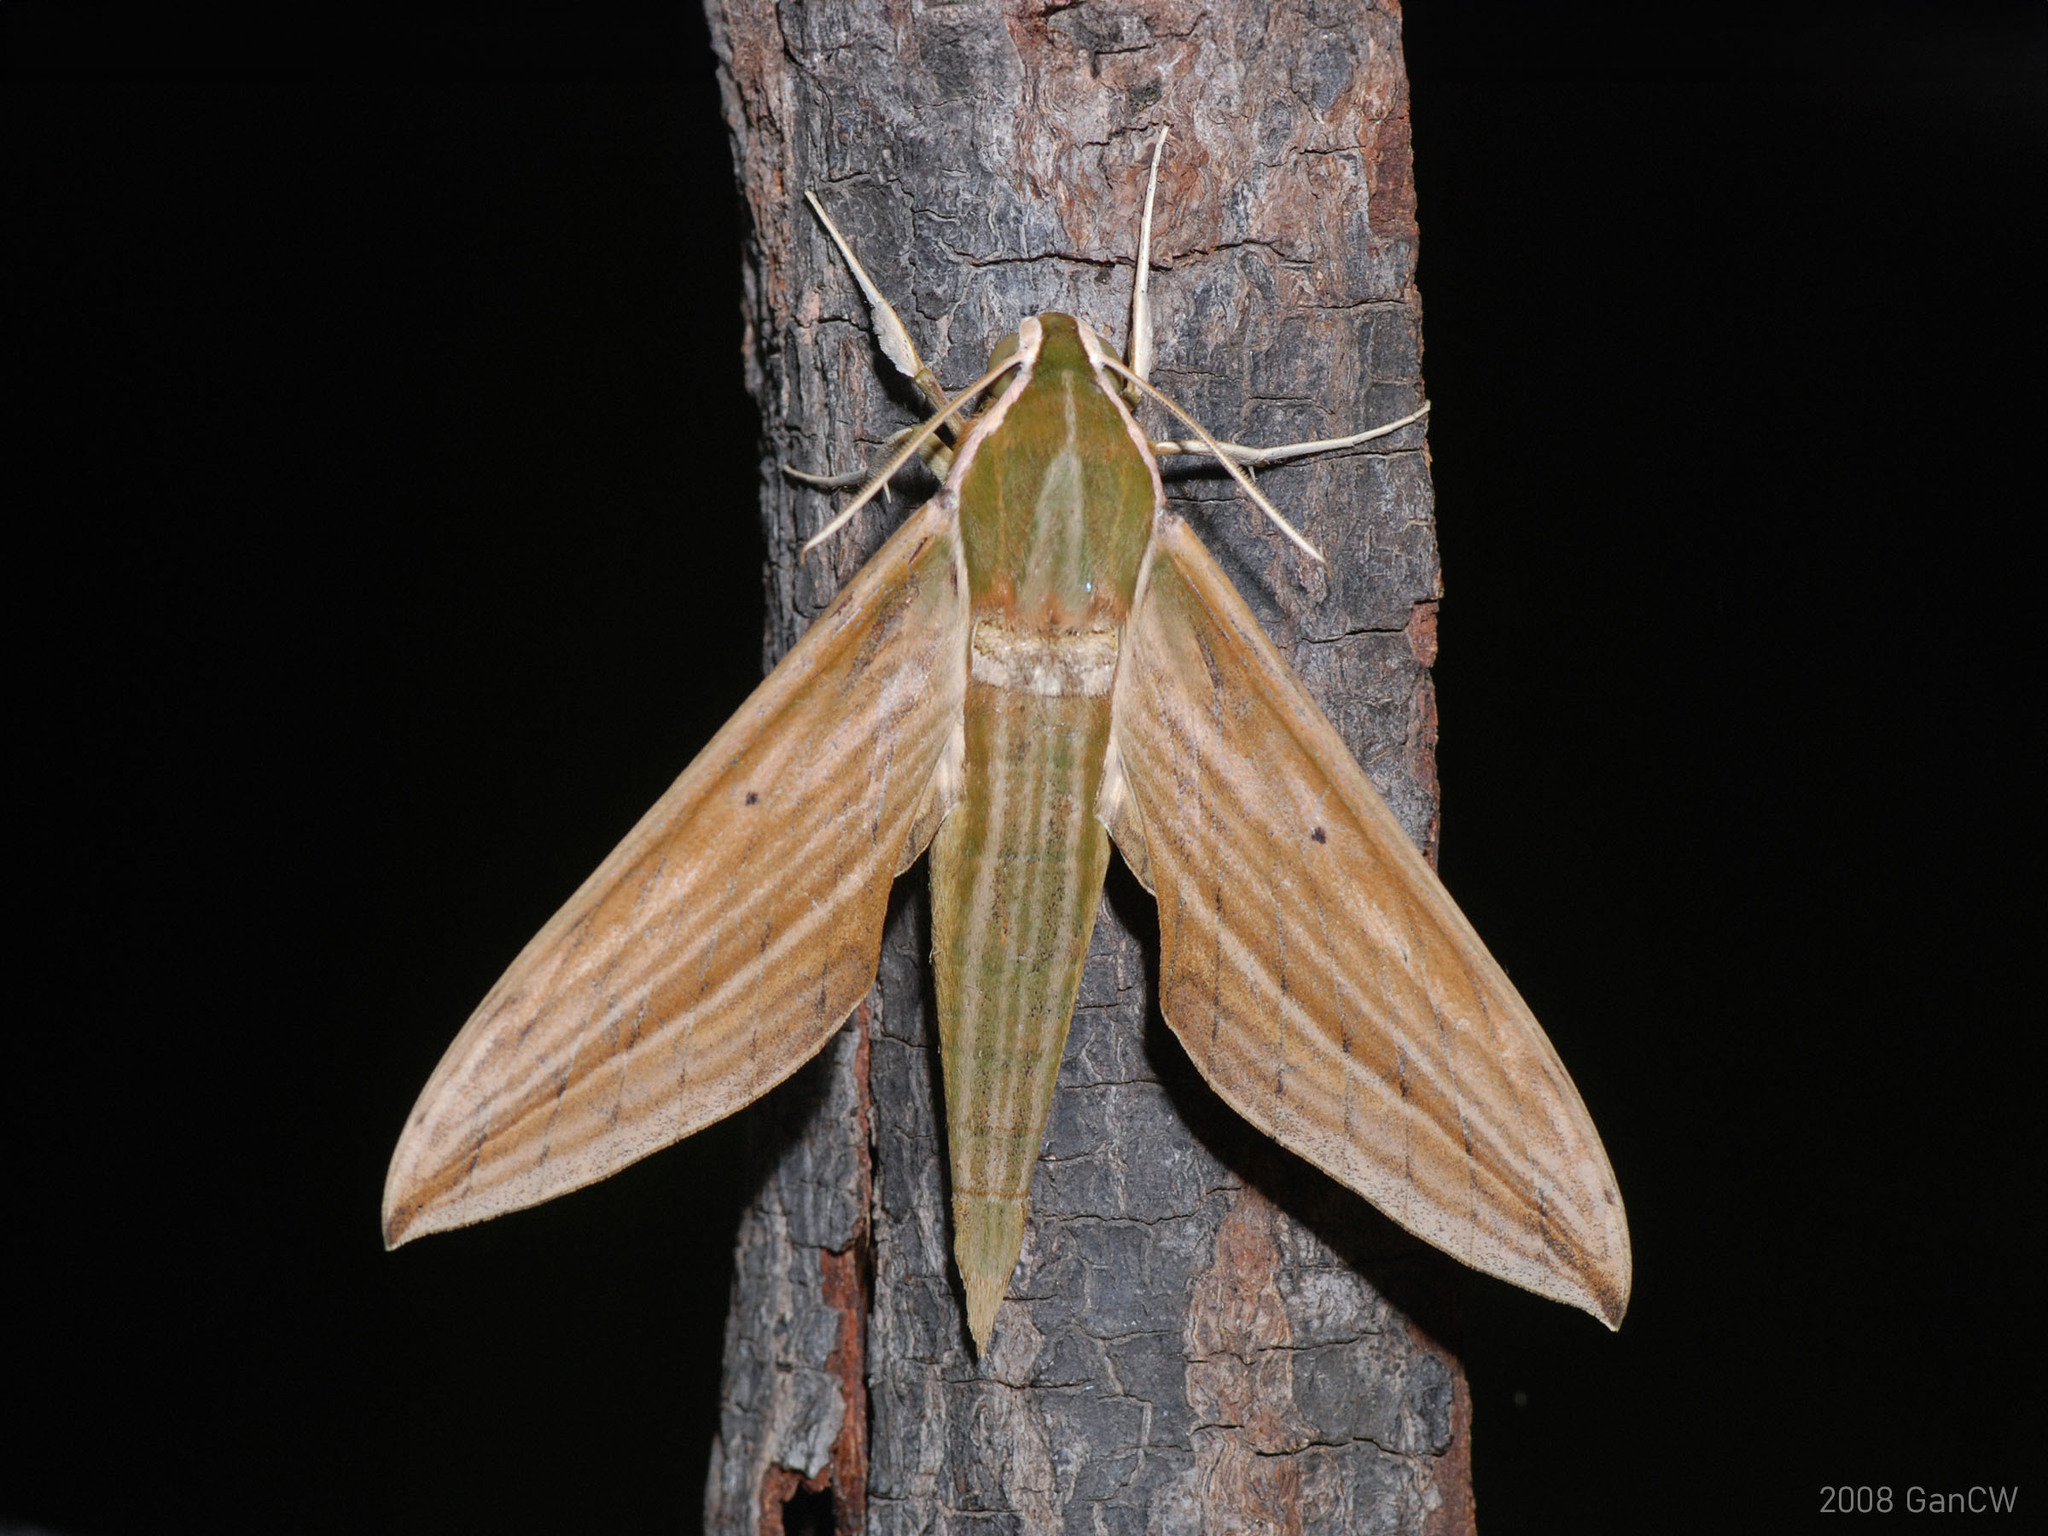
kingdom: Animalia
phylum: Arthropoda
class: Insecta
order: Lepidoptera
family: Sphingidae
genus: Cechetra
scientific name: Cechetra lineosa
